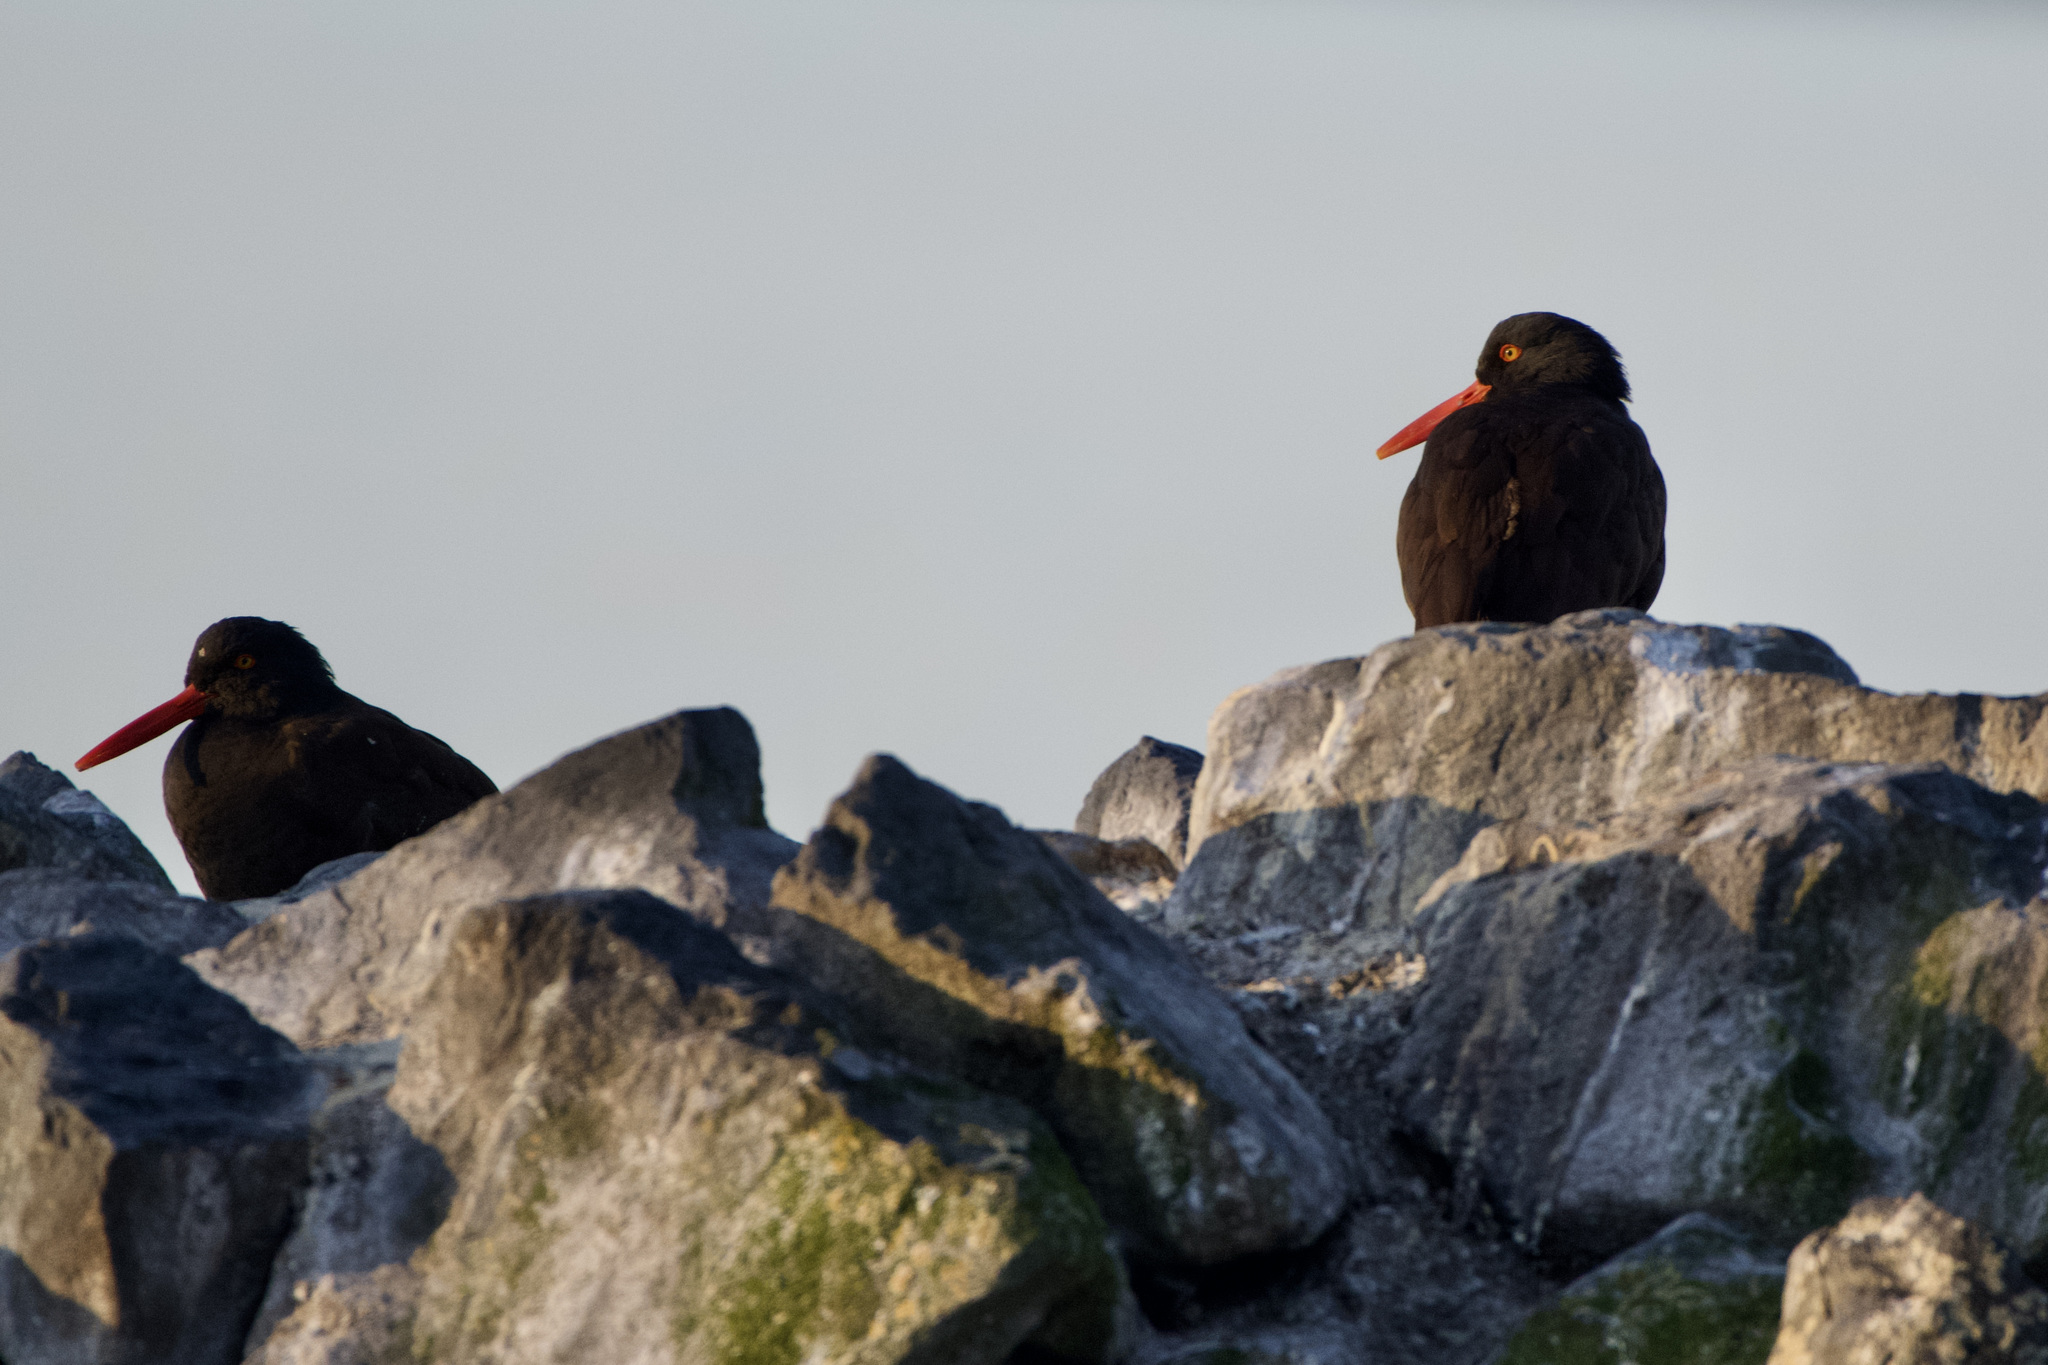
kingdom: Animalia
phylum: Chordata
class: Aves
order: Charadriiformes
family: Haematopodidae
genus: Haematopus
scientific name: Haematopus bachmani
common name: Black oystercatcher
